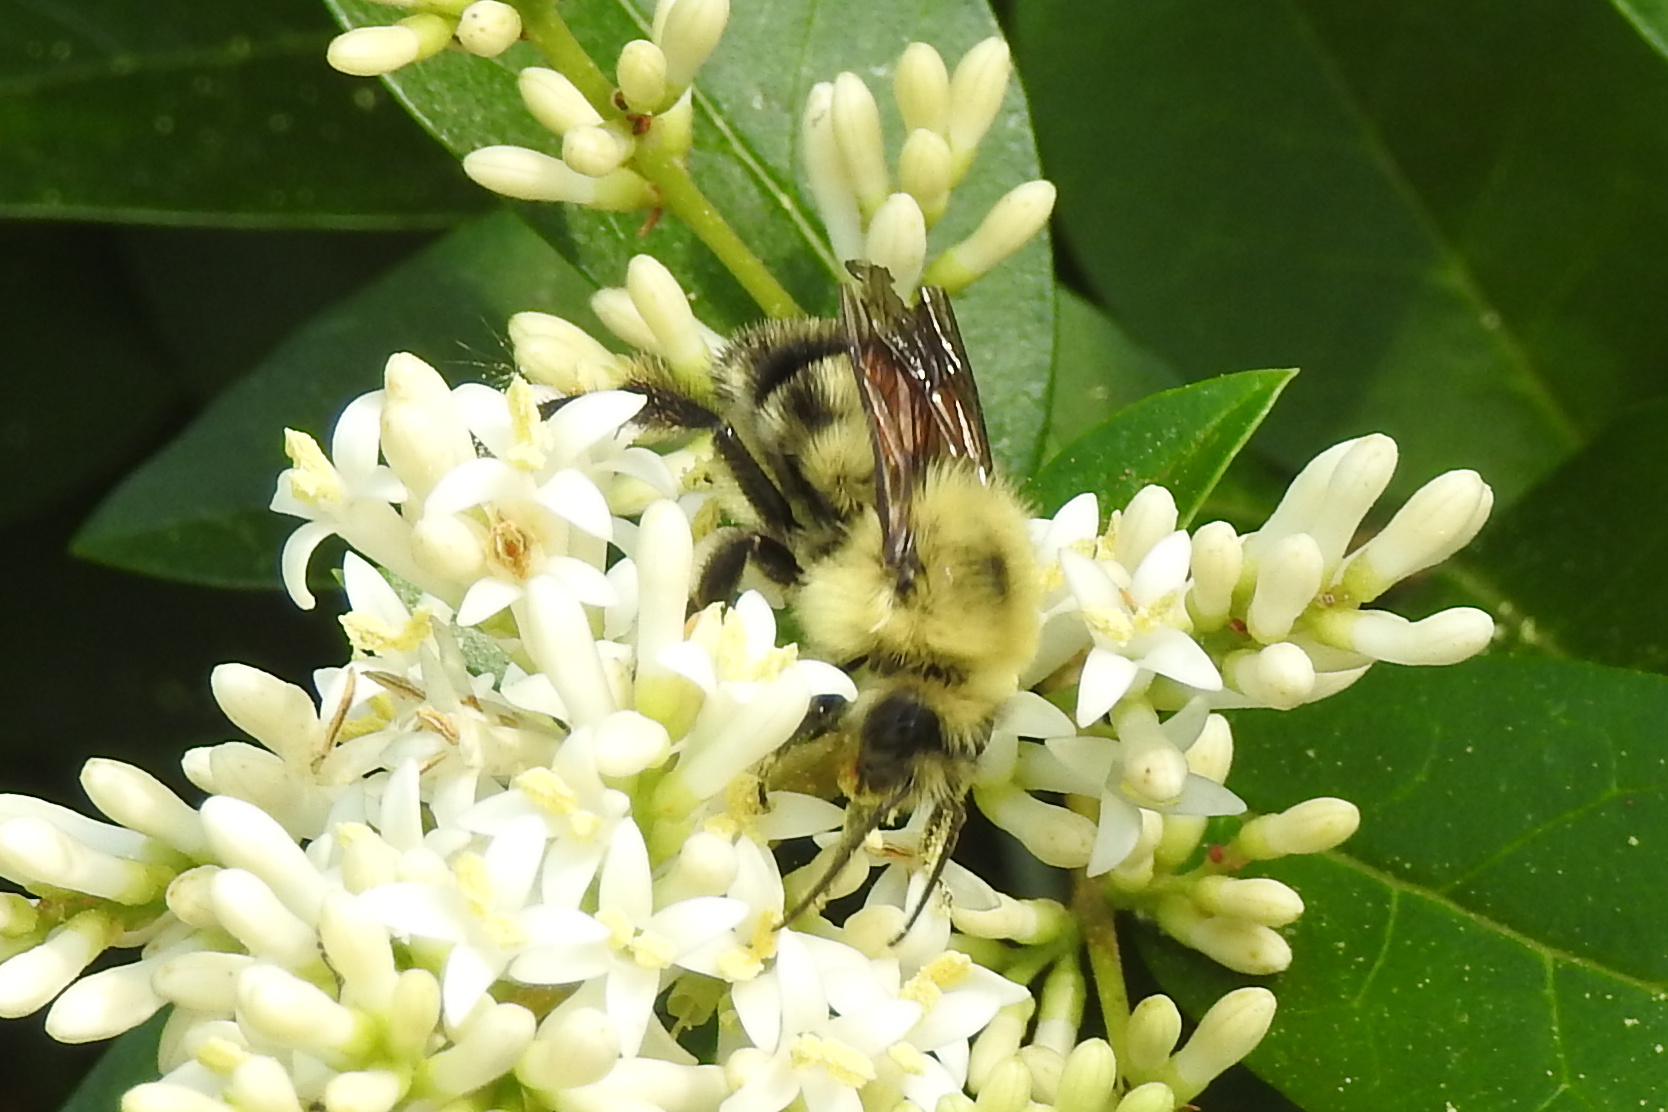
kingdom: Animalia
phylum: Arthropoda
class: Insecta
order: Hymenoptera
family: Apidae
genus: Bombus
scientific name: Bombus bimaculatus
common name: Two-spotted bumble bee
